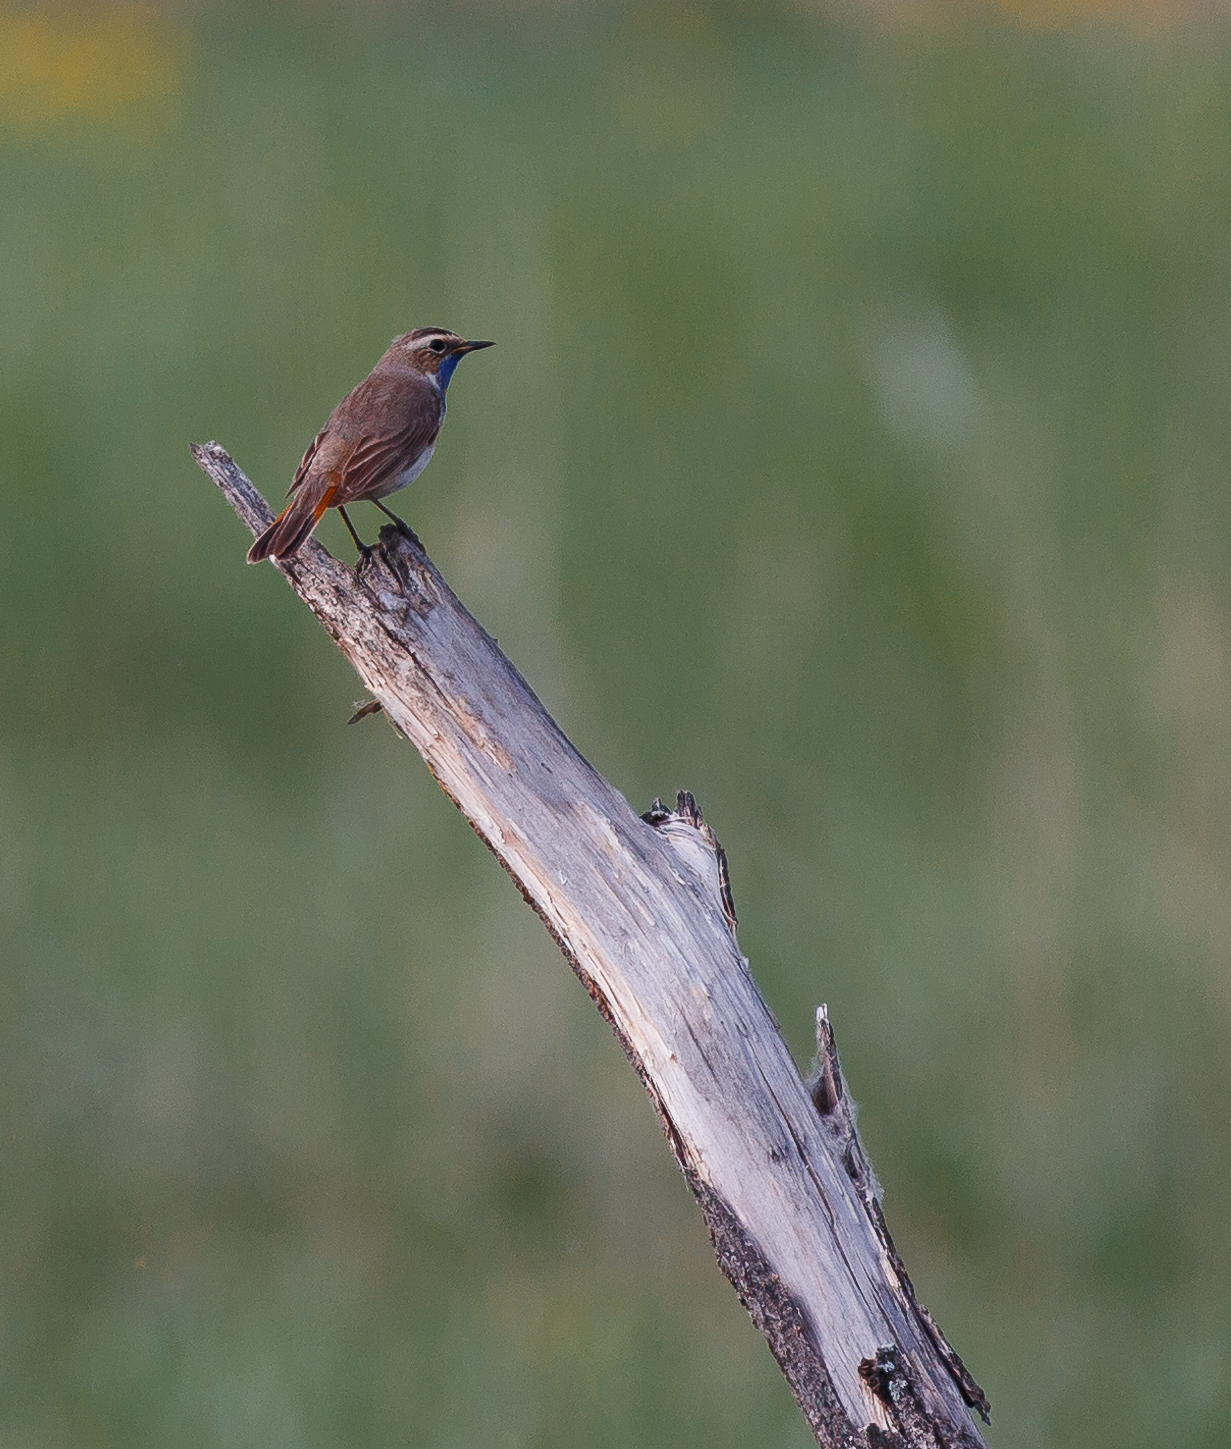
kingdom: Animalia
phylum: Chordata
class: Aves
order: Passeriformes
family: Muscicapidae
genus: Luscinia
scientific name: Luscinia svecica
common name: Bluethroat
